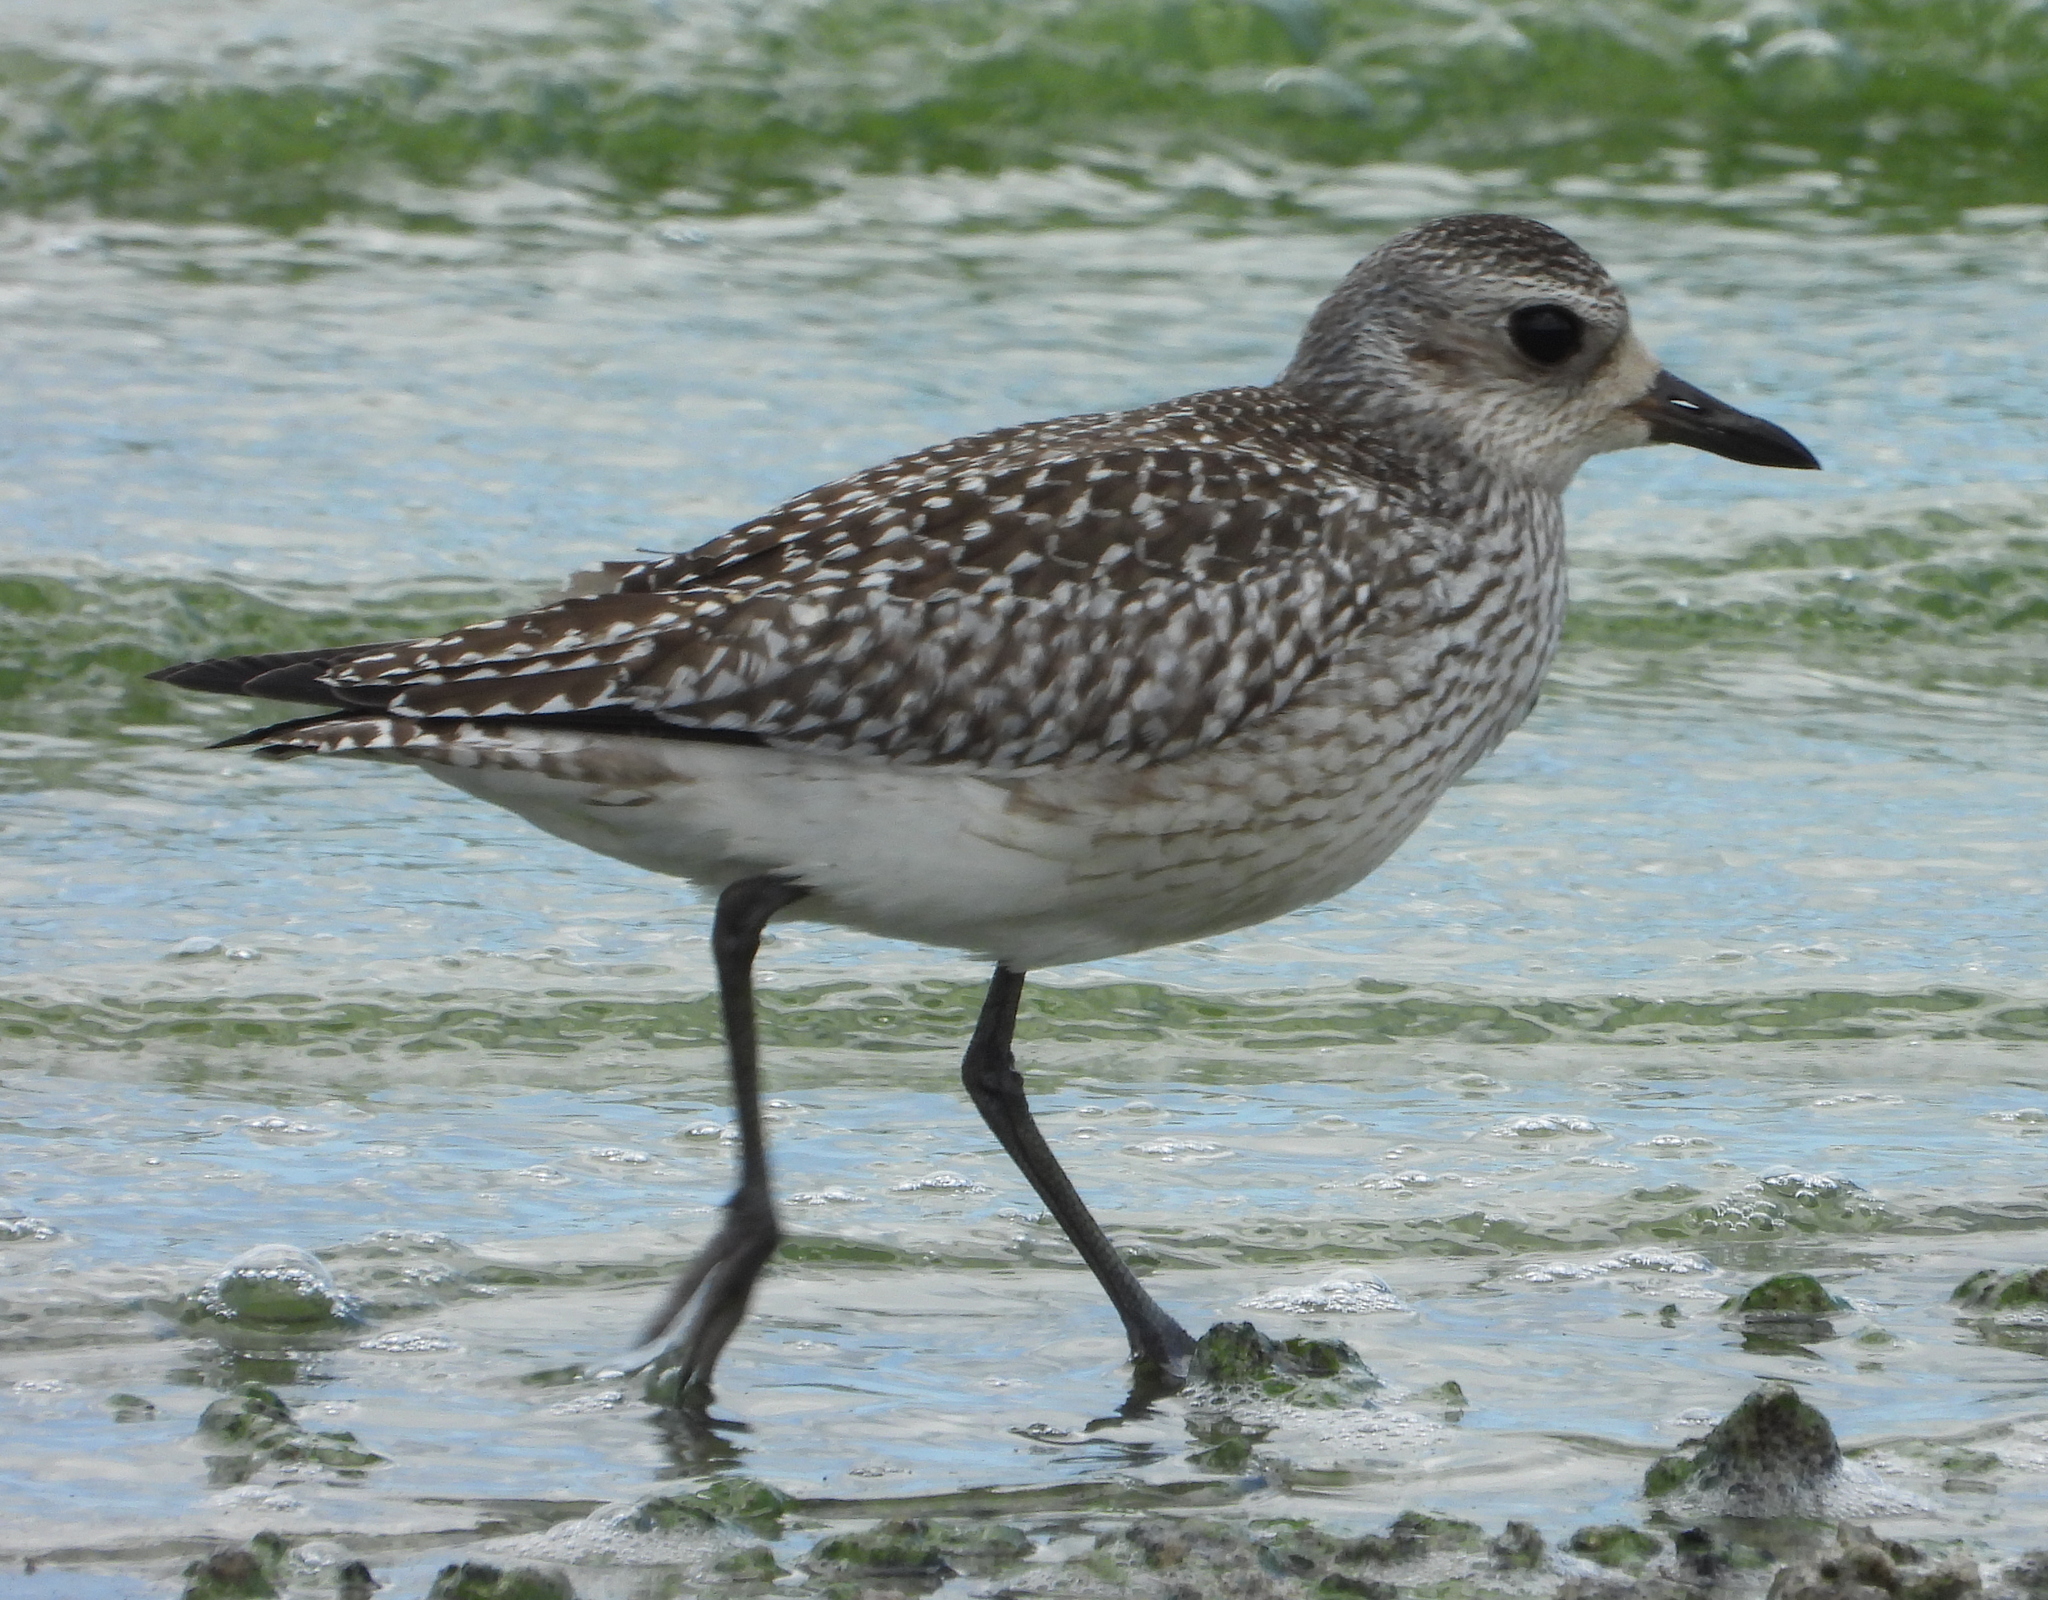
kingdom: Animalia
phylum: Chordata
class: Aves
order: Charadriiformes
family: Charadriidae
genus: Pluvialis
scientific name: Pluvialis squatarola
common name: Grey plover
